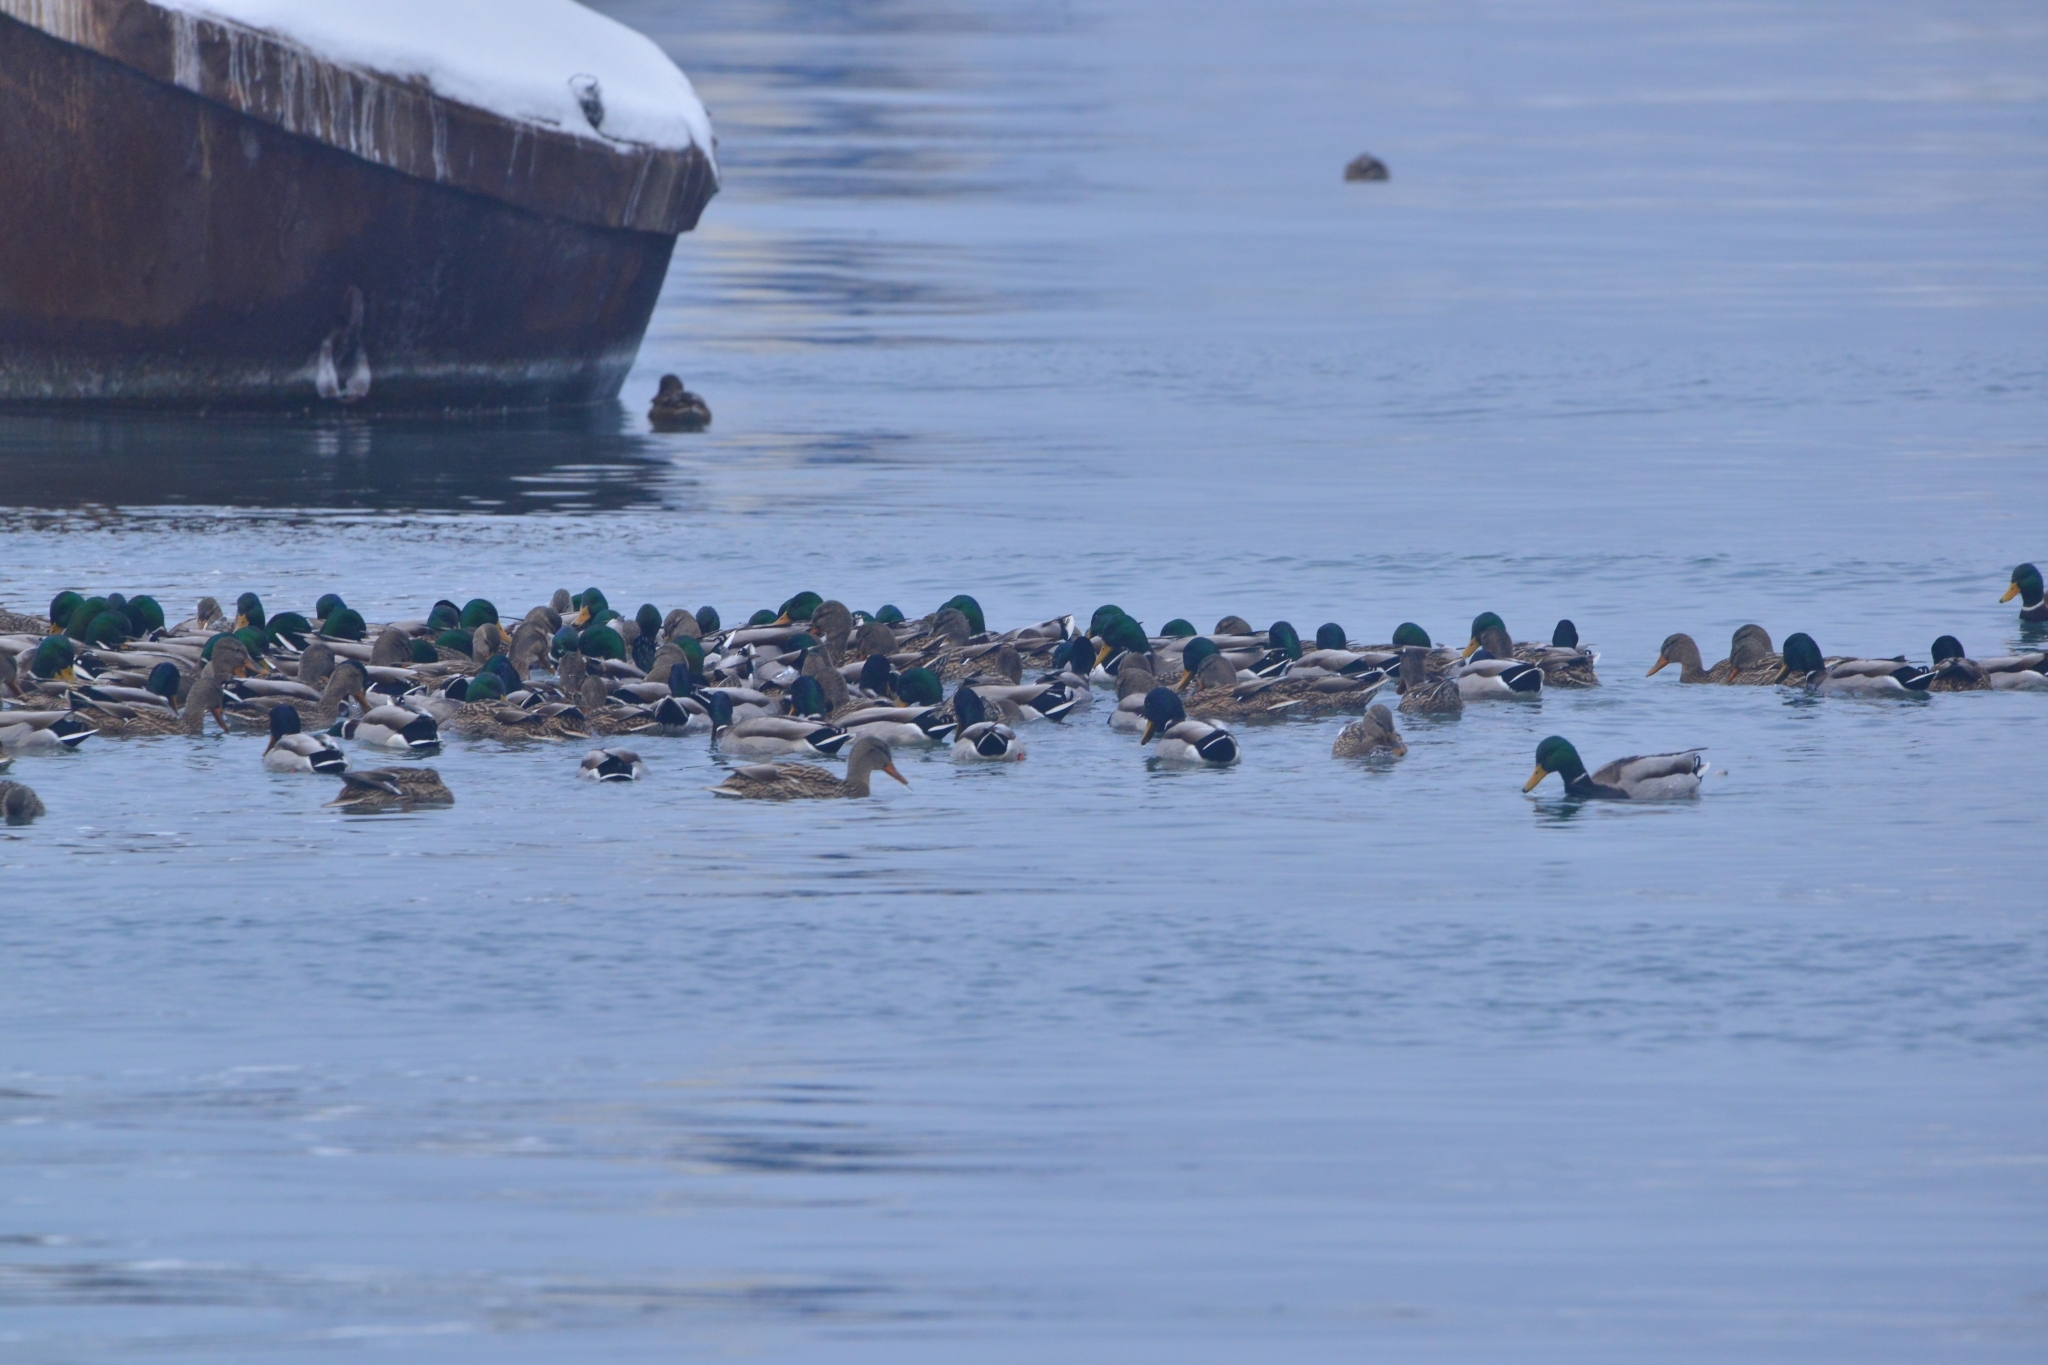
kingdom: Animalia
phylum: Chordata
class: Aves
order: Anseriformes
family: Anatidae
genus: Anas
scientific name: Anas platyrhynchos
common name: Mallard
